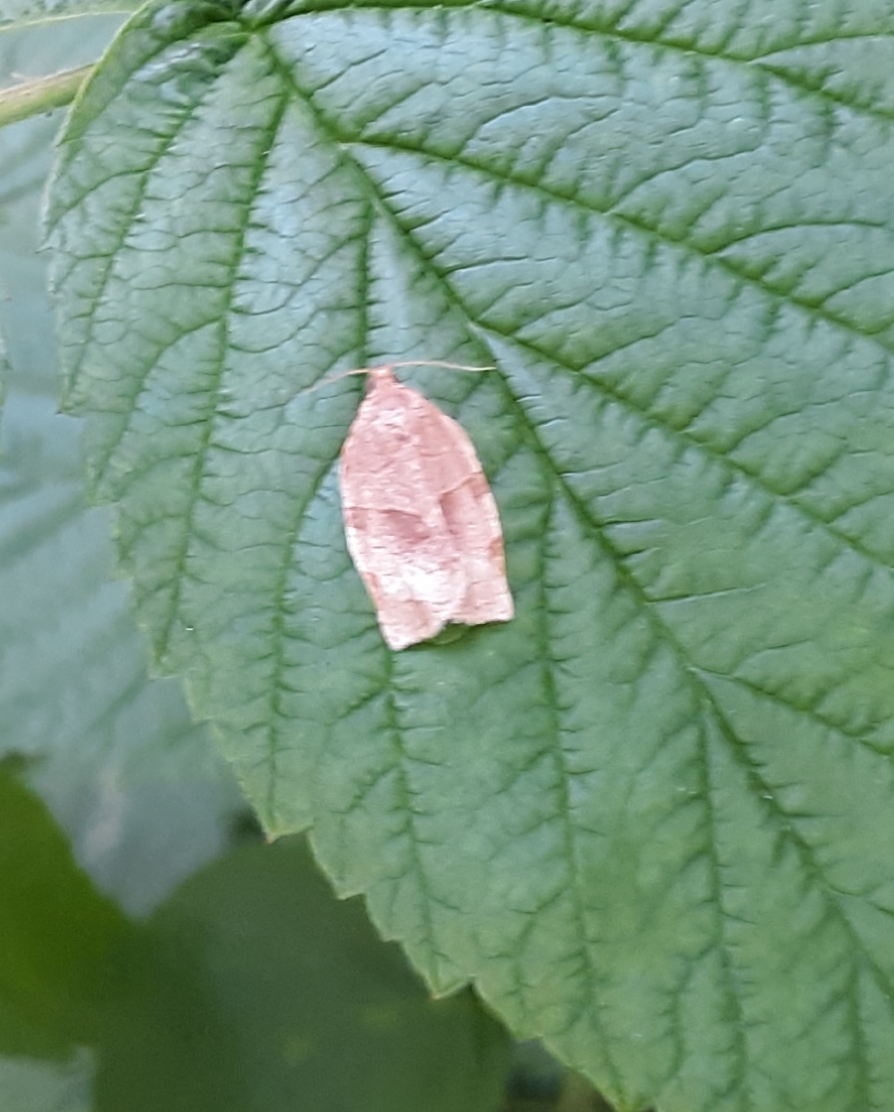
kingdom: Animalia
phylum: Arthropoda
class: Insecta
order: Lepidoptera
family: Tortricidae
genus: Choristoneura
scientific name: Choristoneura rosaceana
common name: Oblique-banded leafroller moth
